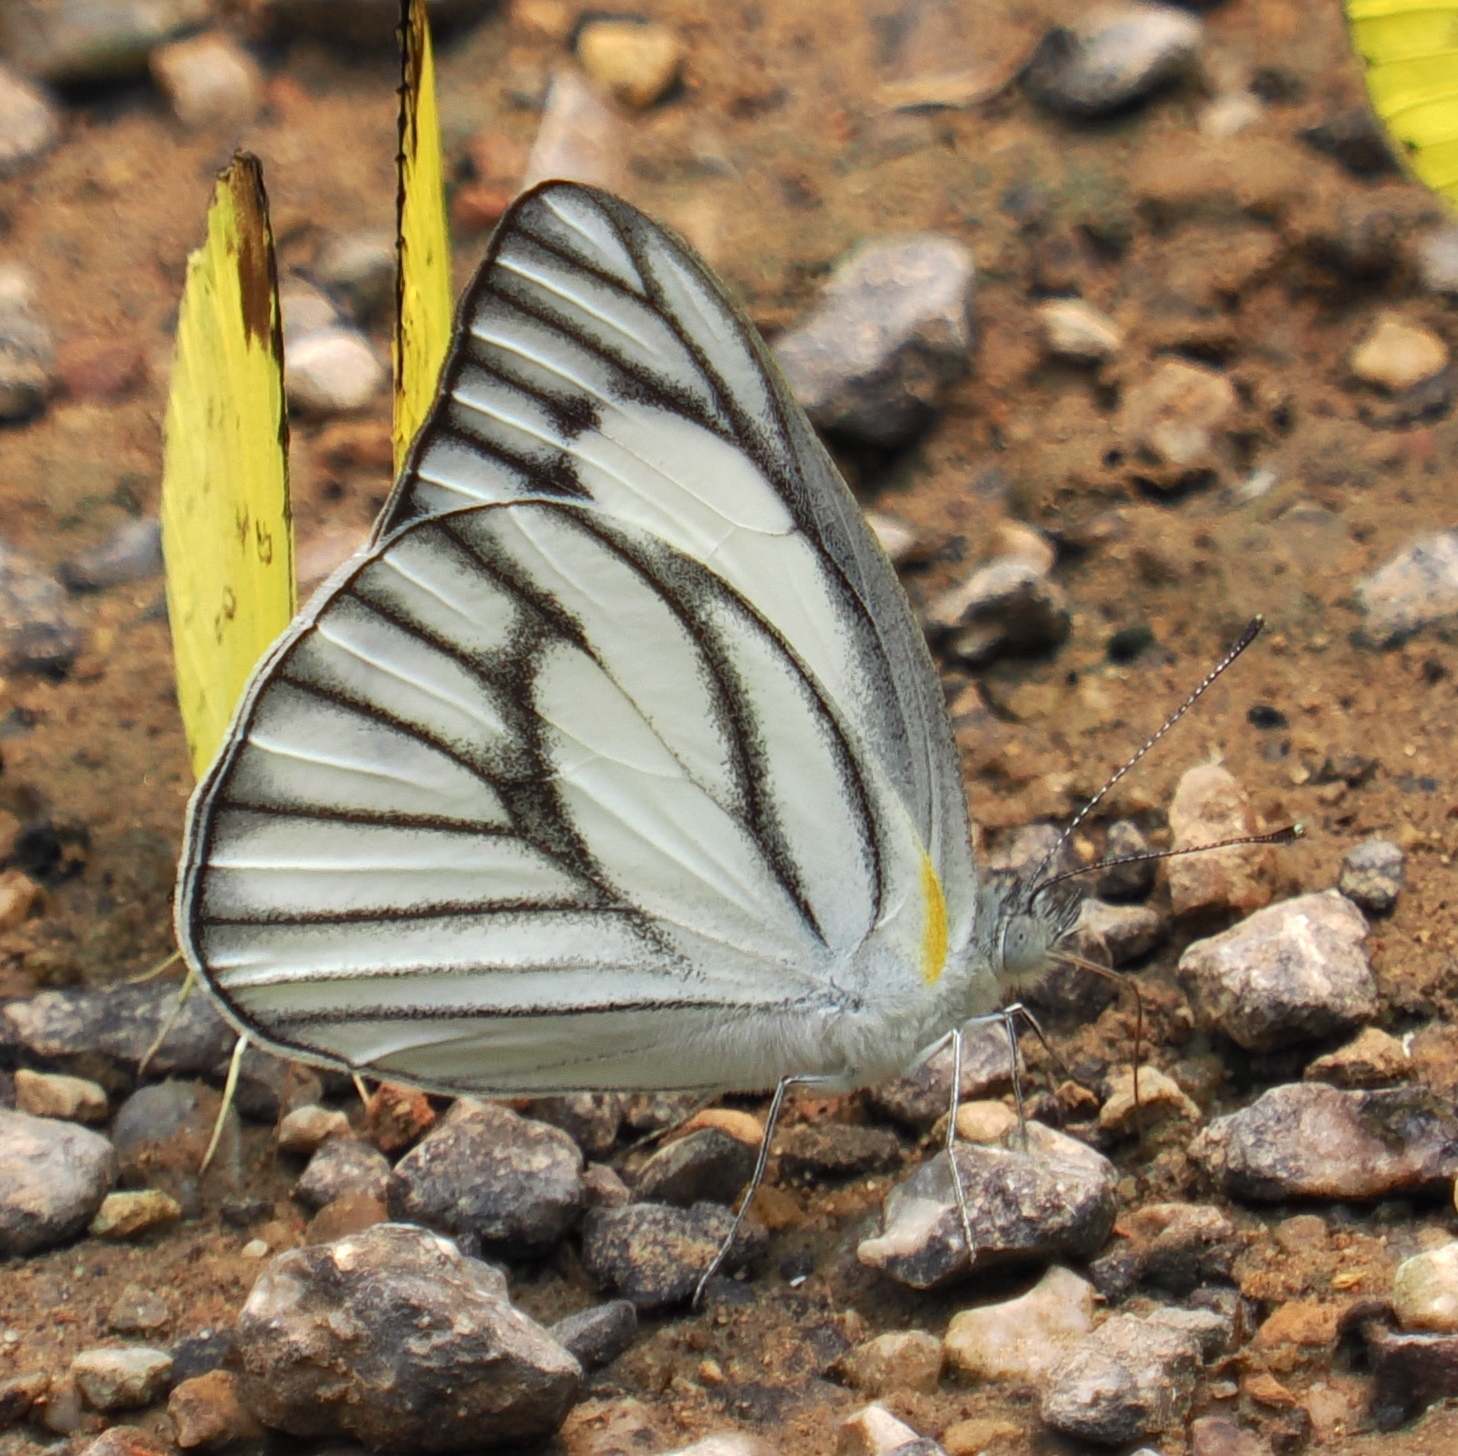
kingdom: Animalia
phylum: Arthropoda
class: Insecta
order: Lepidoptera
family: Pieridae
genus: Appias
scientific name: Appias libythea
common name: Striped albatross
